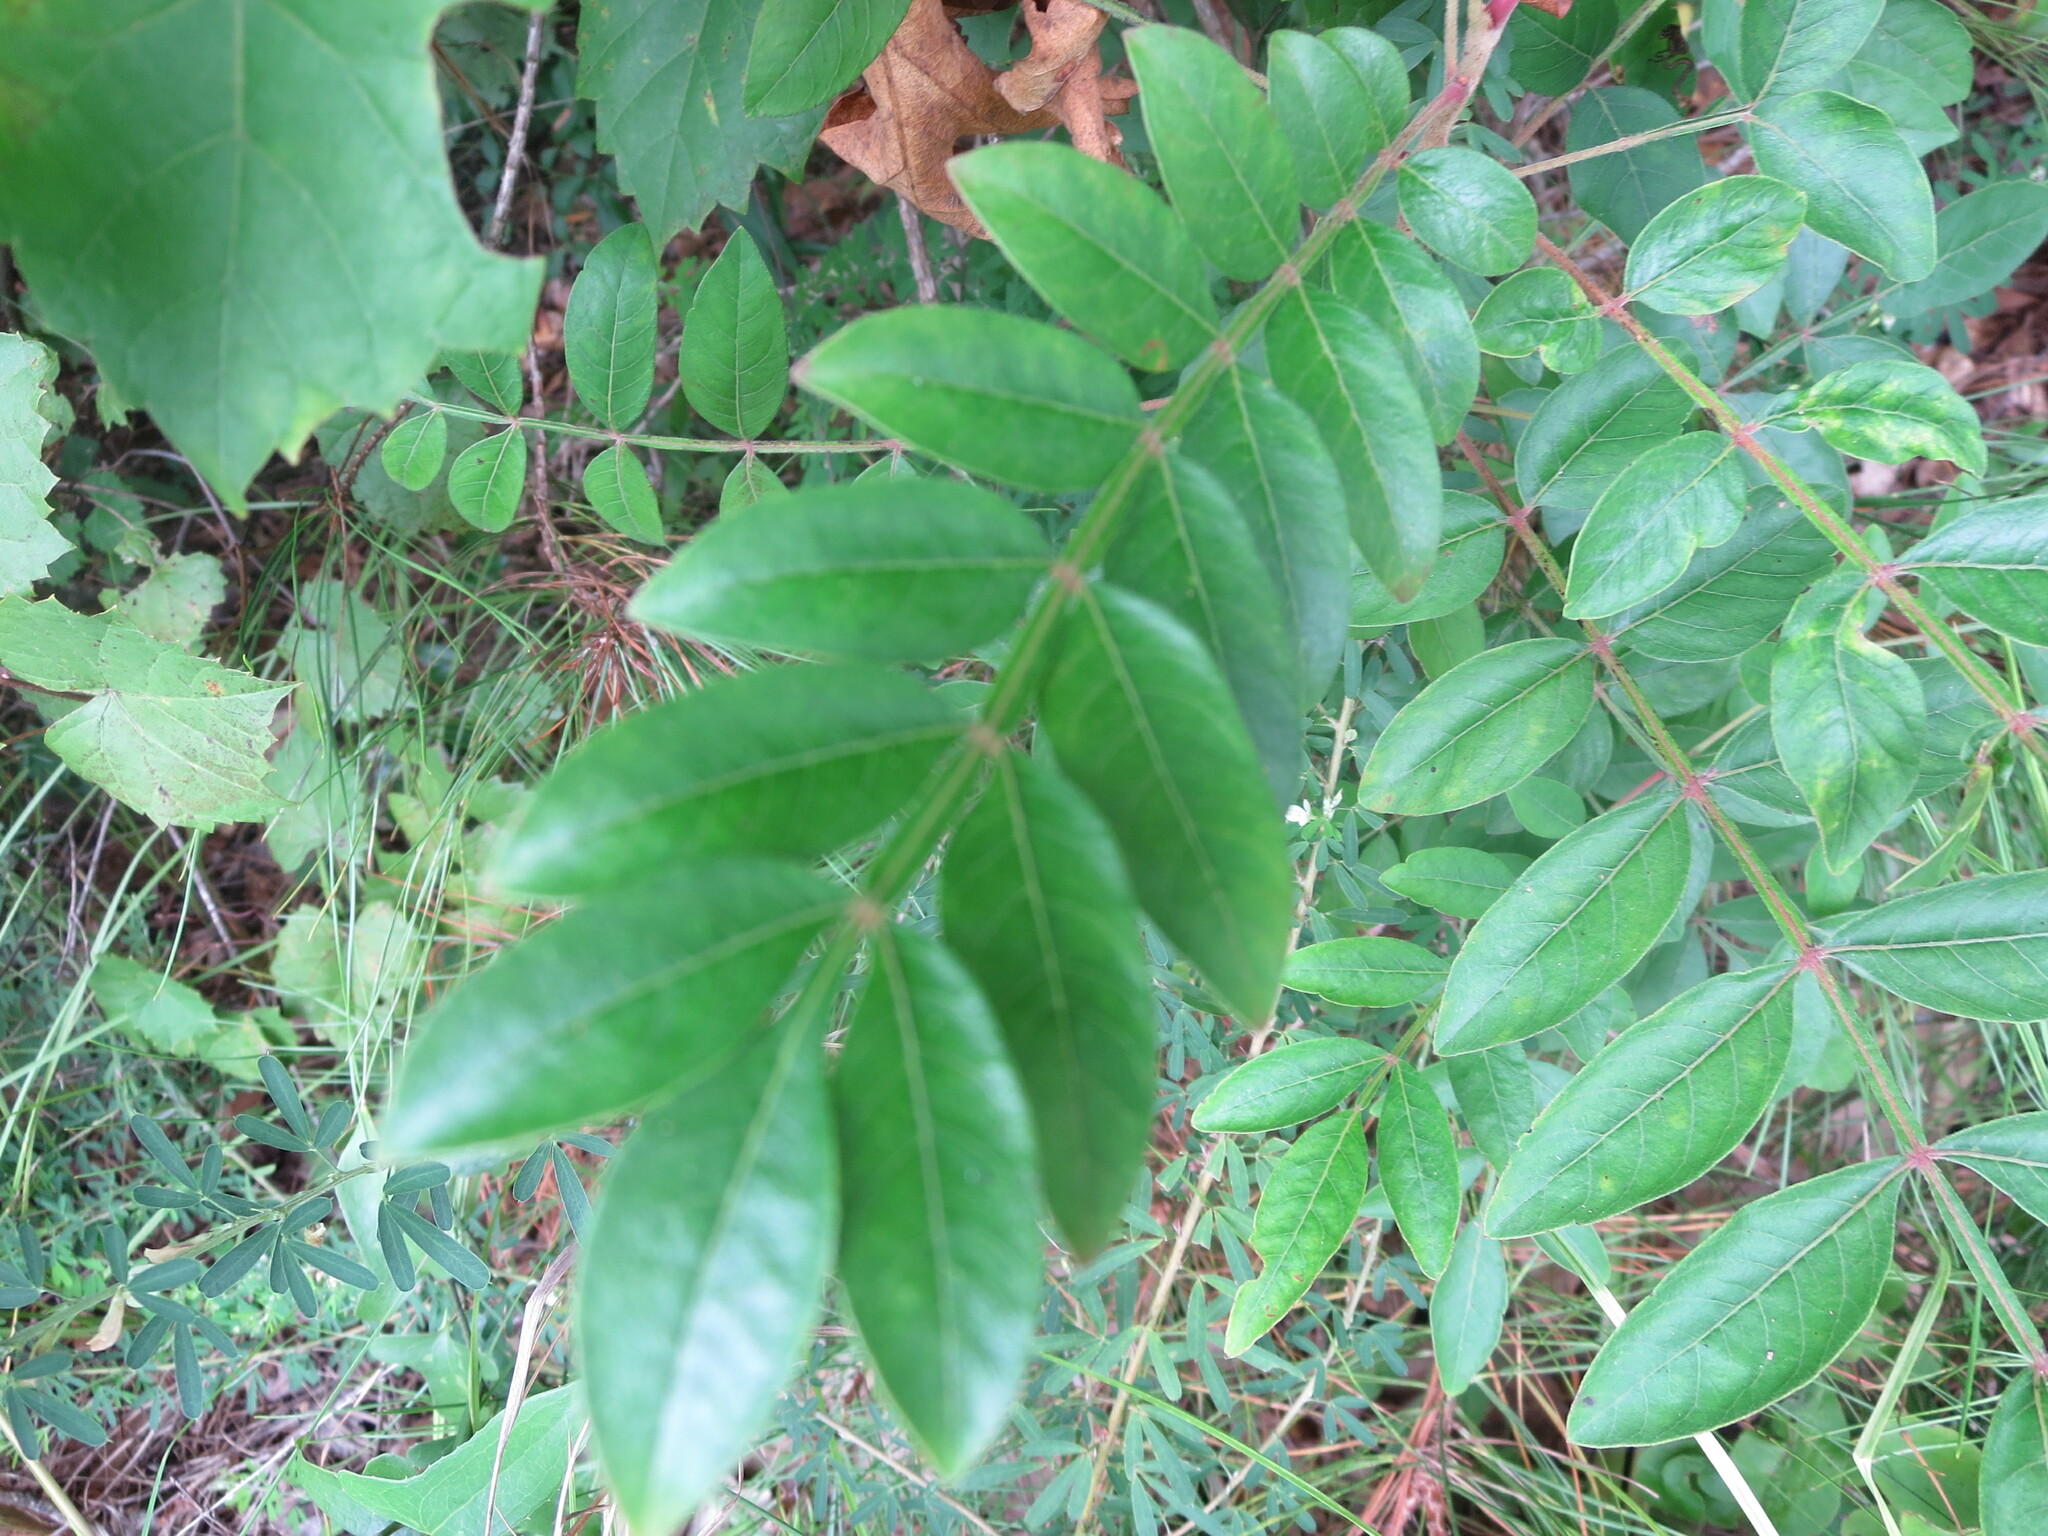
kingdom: Plantae
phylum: Tracheophyta
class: Magnoliopsida
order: Sapindales
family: Anacardiaceae
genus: Rhus
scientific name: Rhus copallina
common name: Shining sumac
